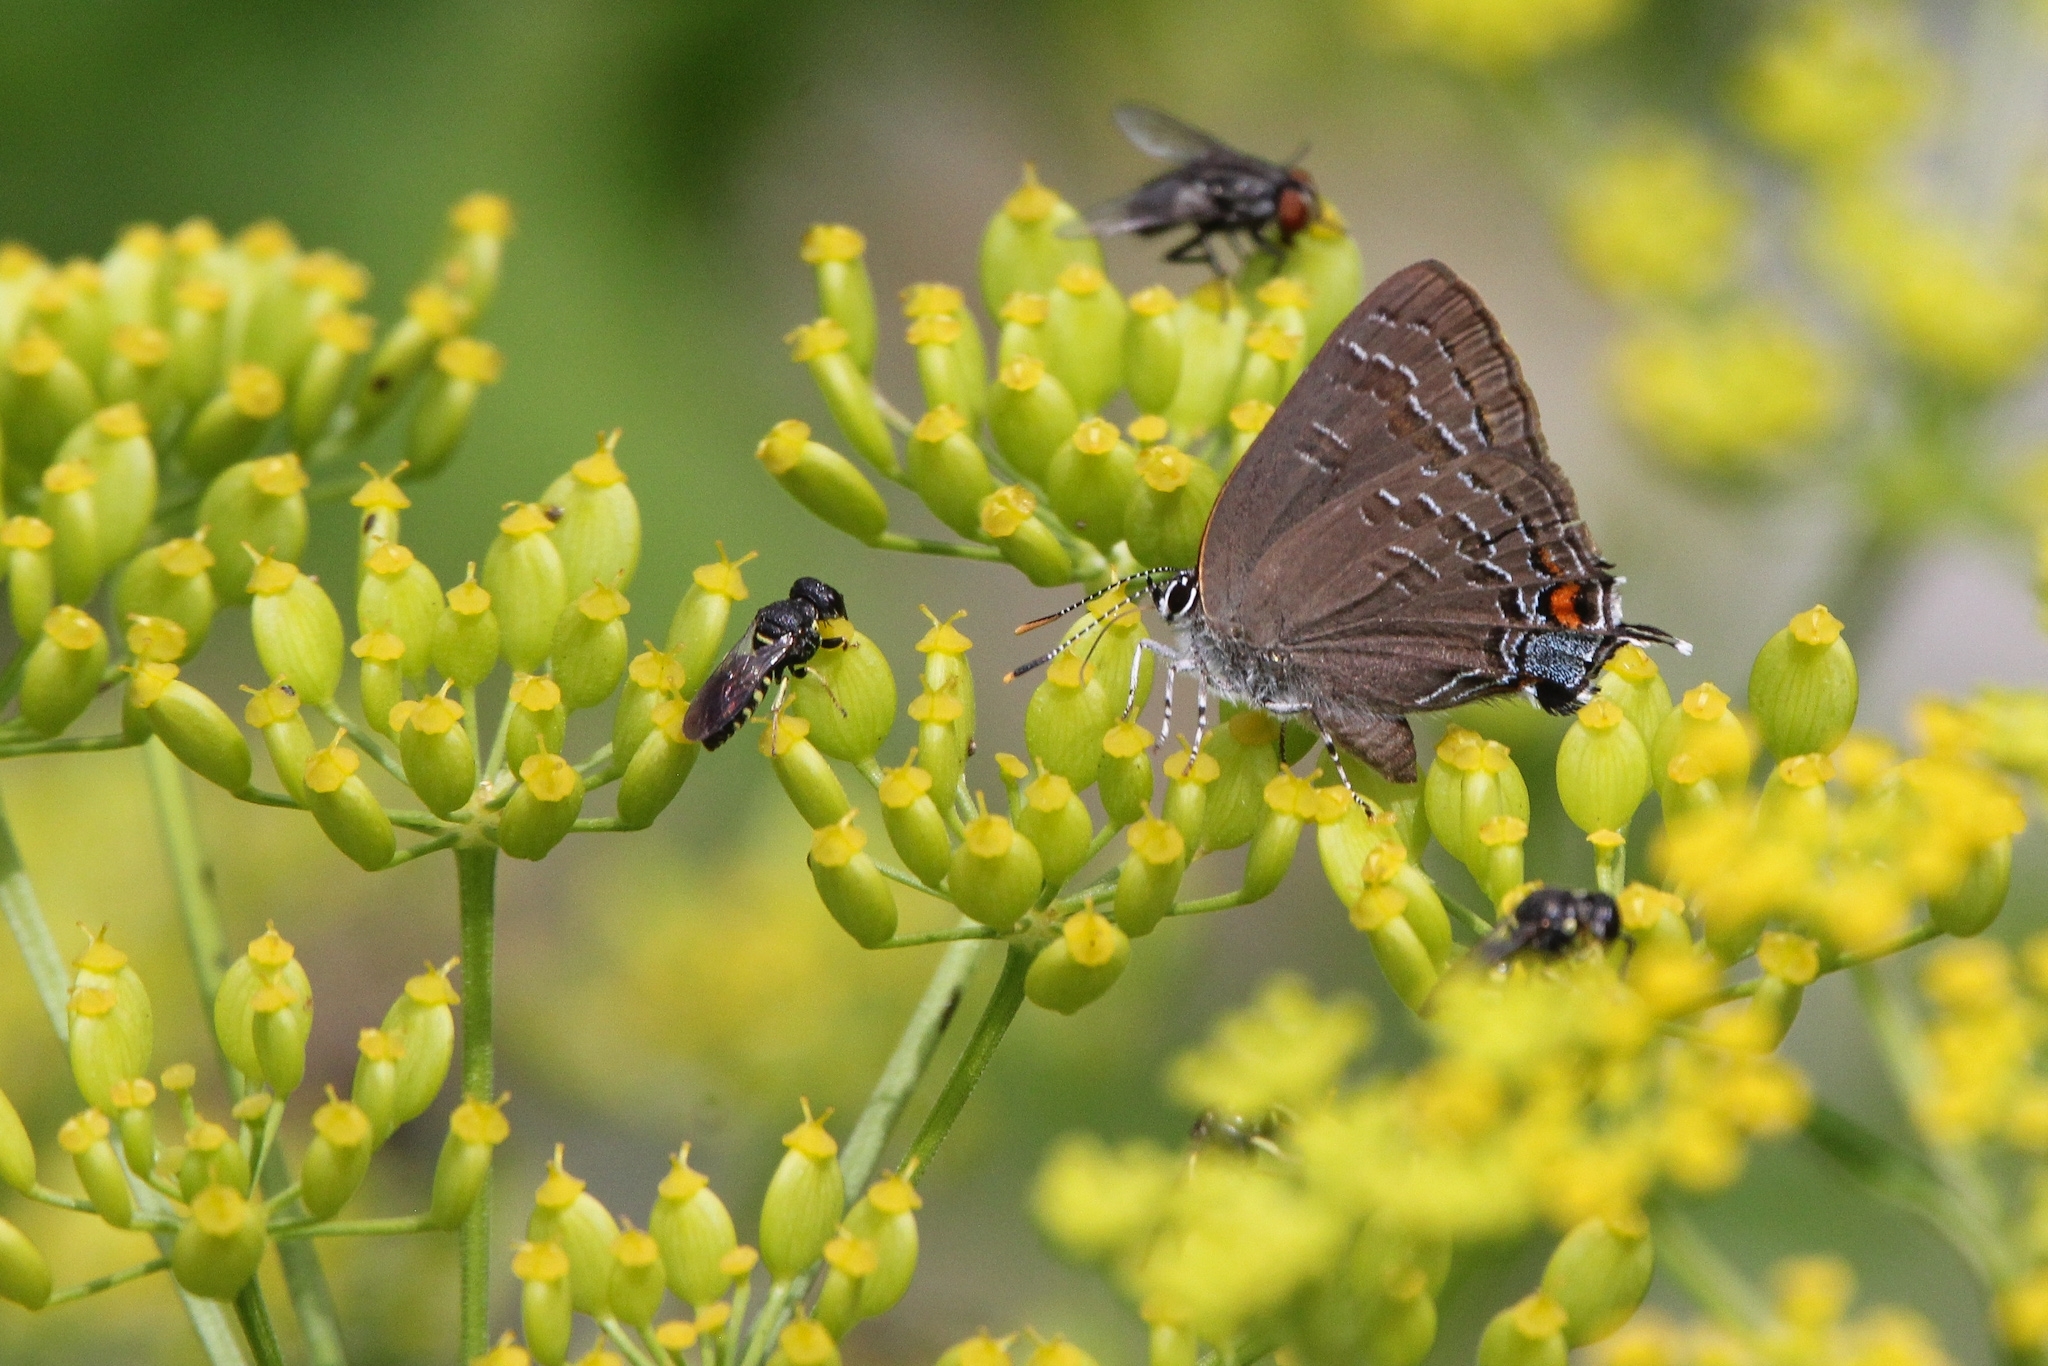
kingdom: Animalia
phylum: Arthropoda
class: Insecta
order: Lepidoptera
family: Lycaenidae
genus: Satyrium
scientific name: Satyrium calanus
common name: Banded hairstreak
